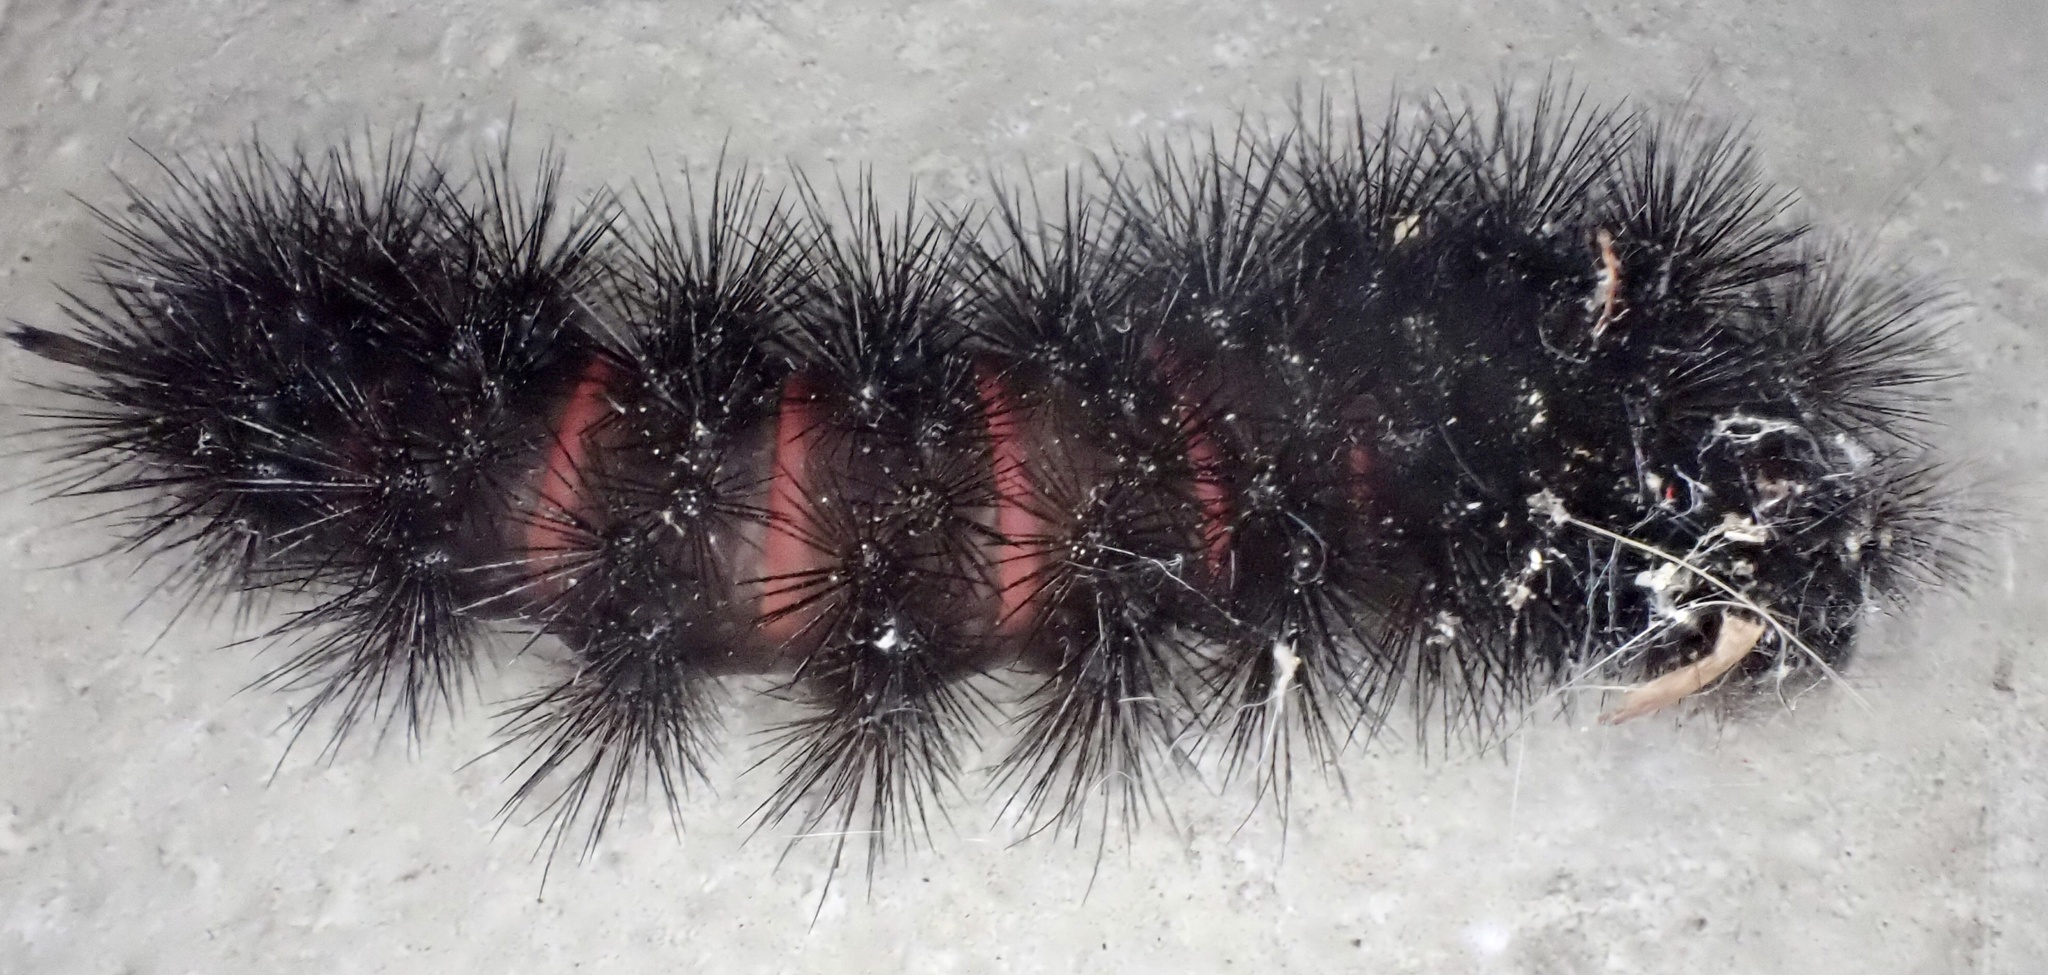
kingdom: Animalia
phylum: Arthropoda
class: Insecta
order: Lepidoptera
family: Erebidae
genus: Hypercompe
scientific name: Hypercompe scribonia
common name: Giant leopard moth
